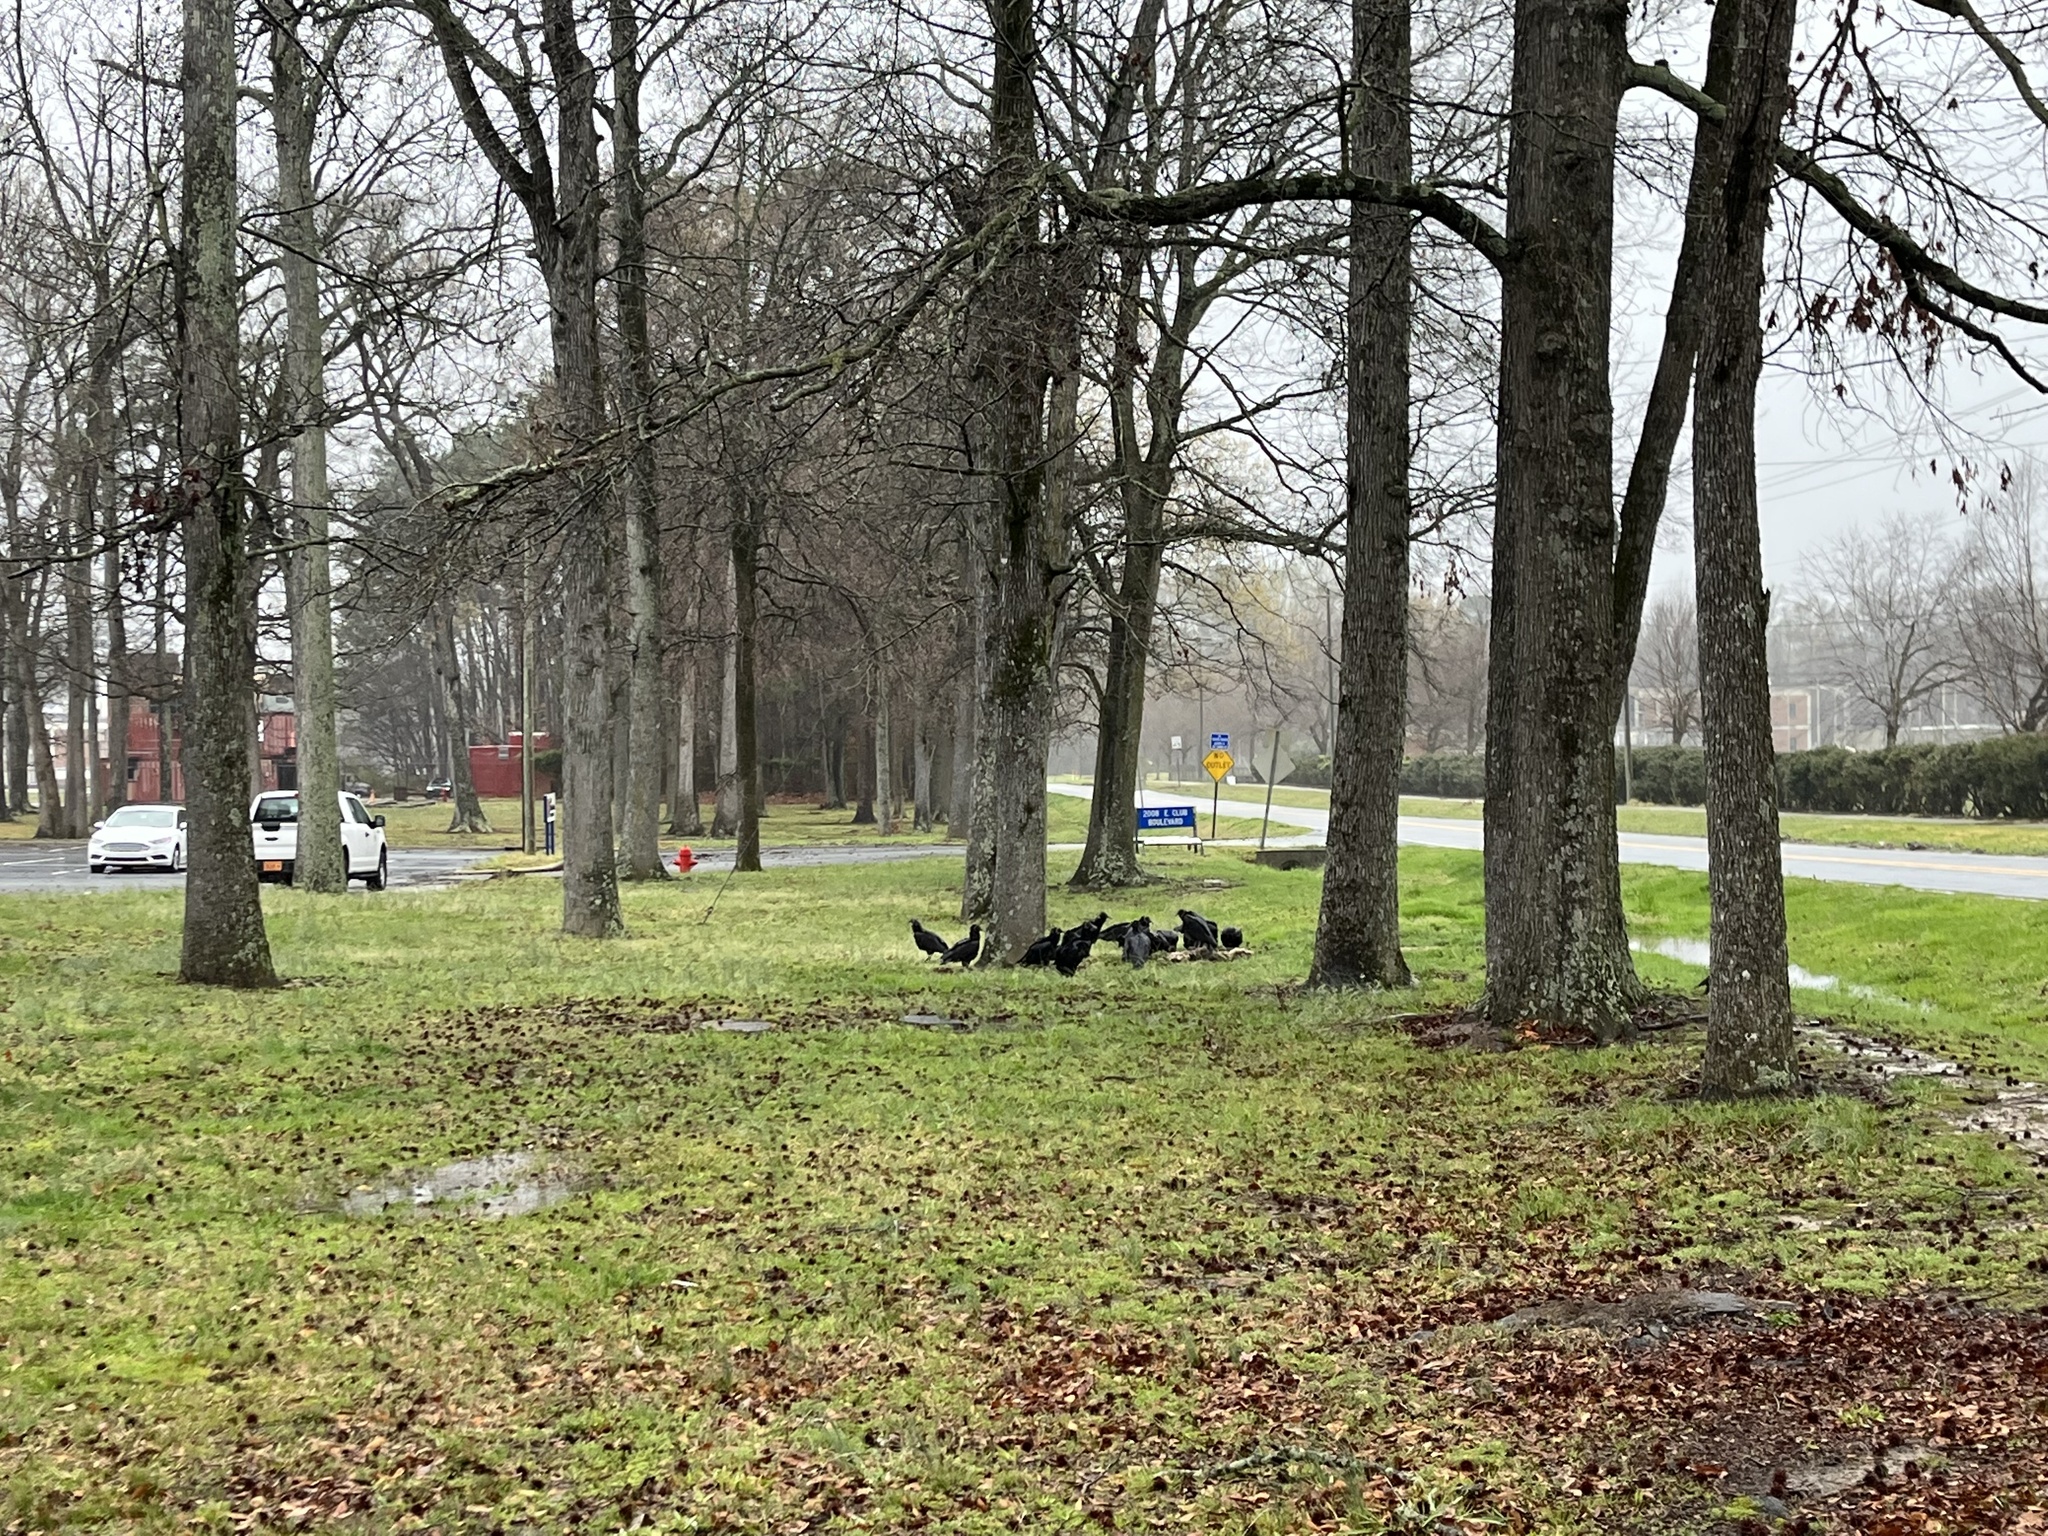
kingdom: Animalia
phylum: Chordata
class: Aves
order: Accipitriformes
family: Cathartidae
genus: Coragyps
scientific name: Coragyps atratus
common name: Black vulture
